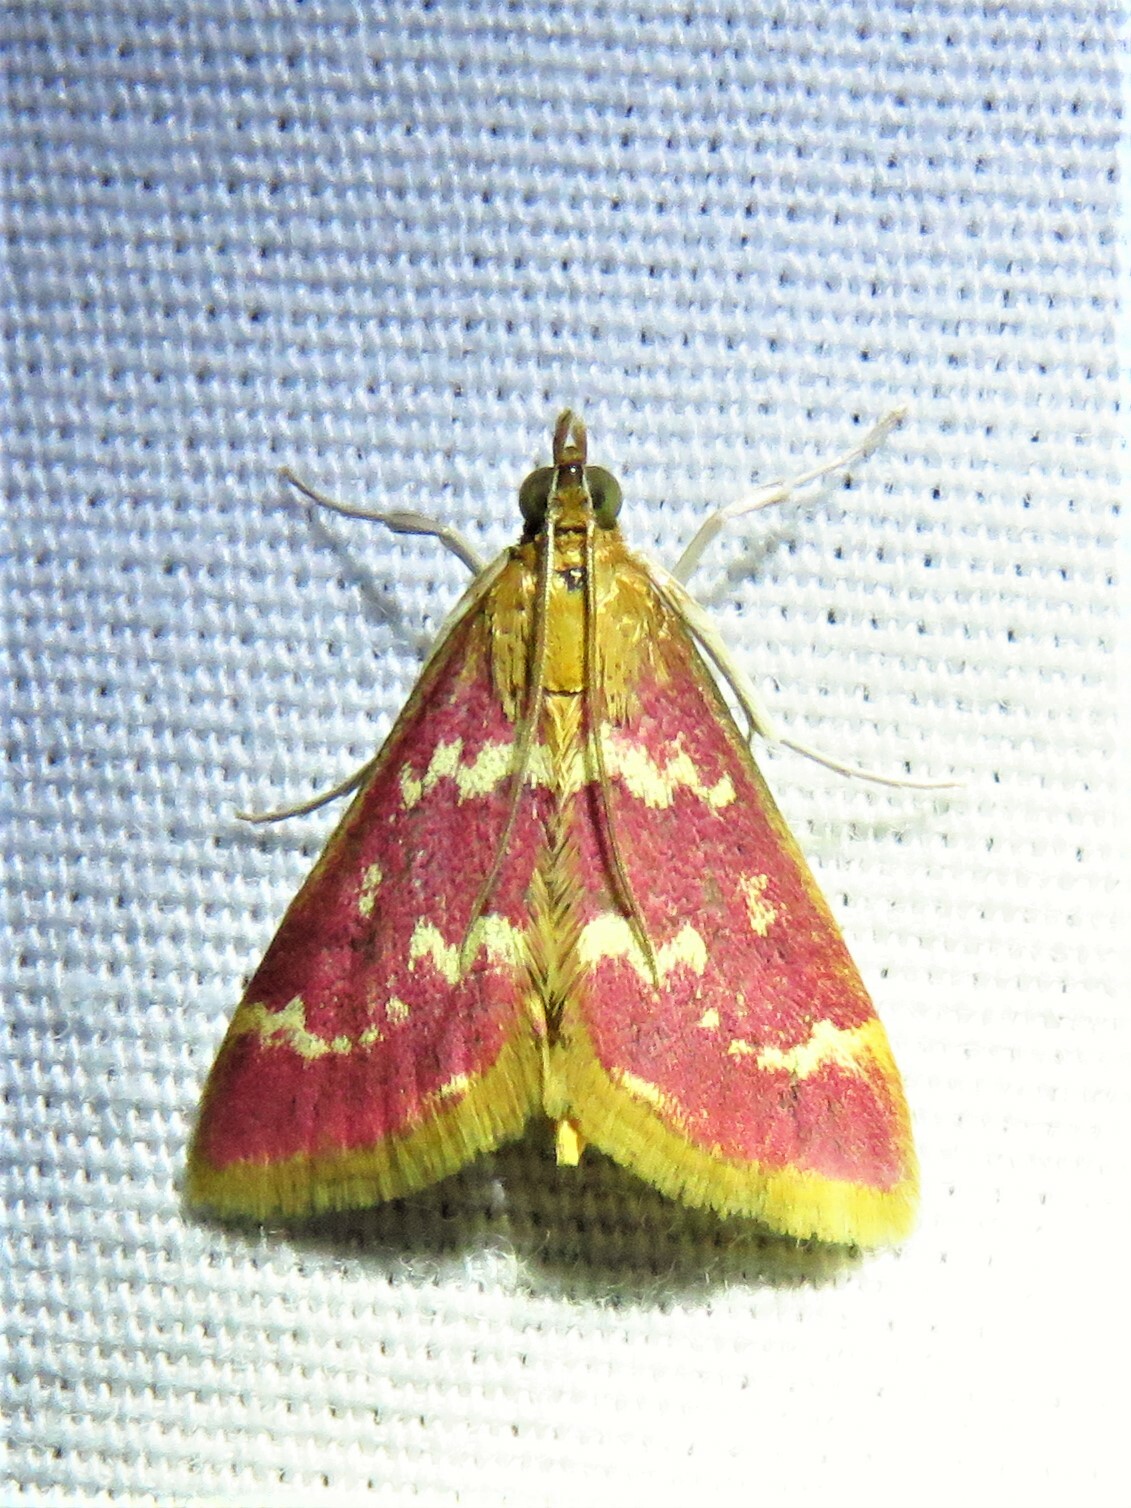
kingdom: Animalia
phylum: Arthropoda
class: Insecta
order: Lepidoptera
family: Crambidae
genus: Pyrausta
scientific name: Pyrausta signatalis
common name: Raspberry pyrausta moth
